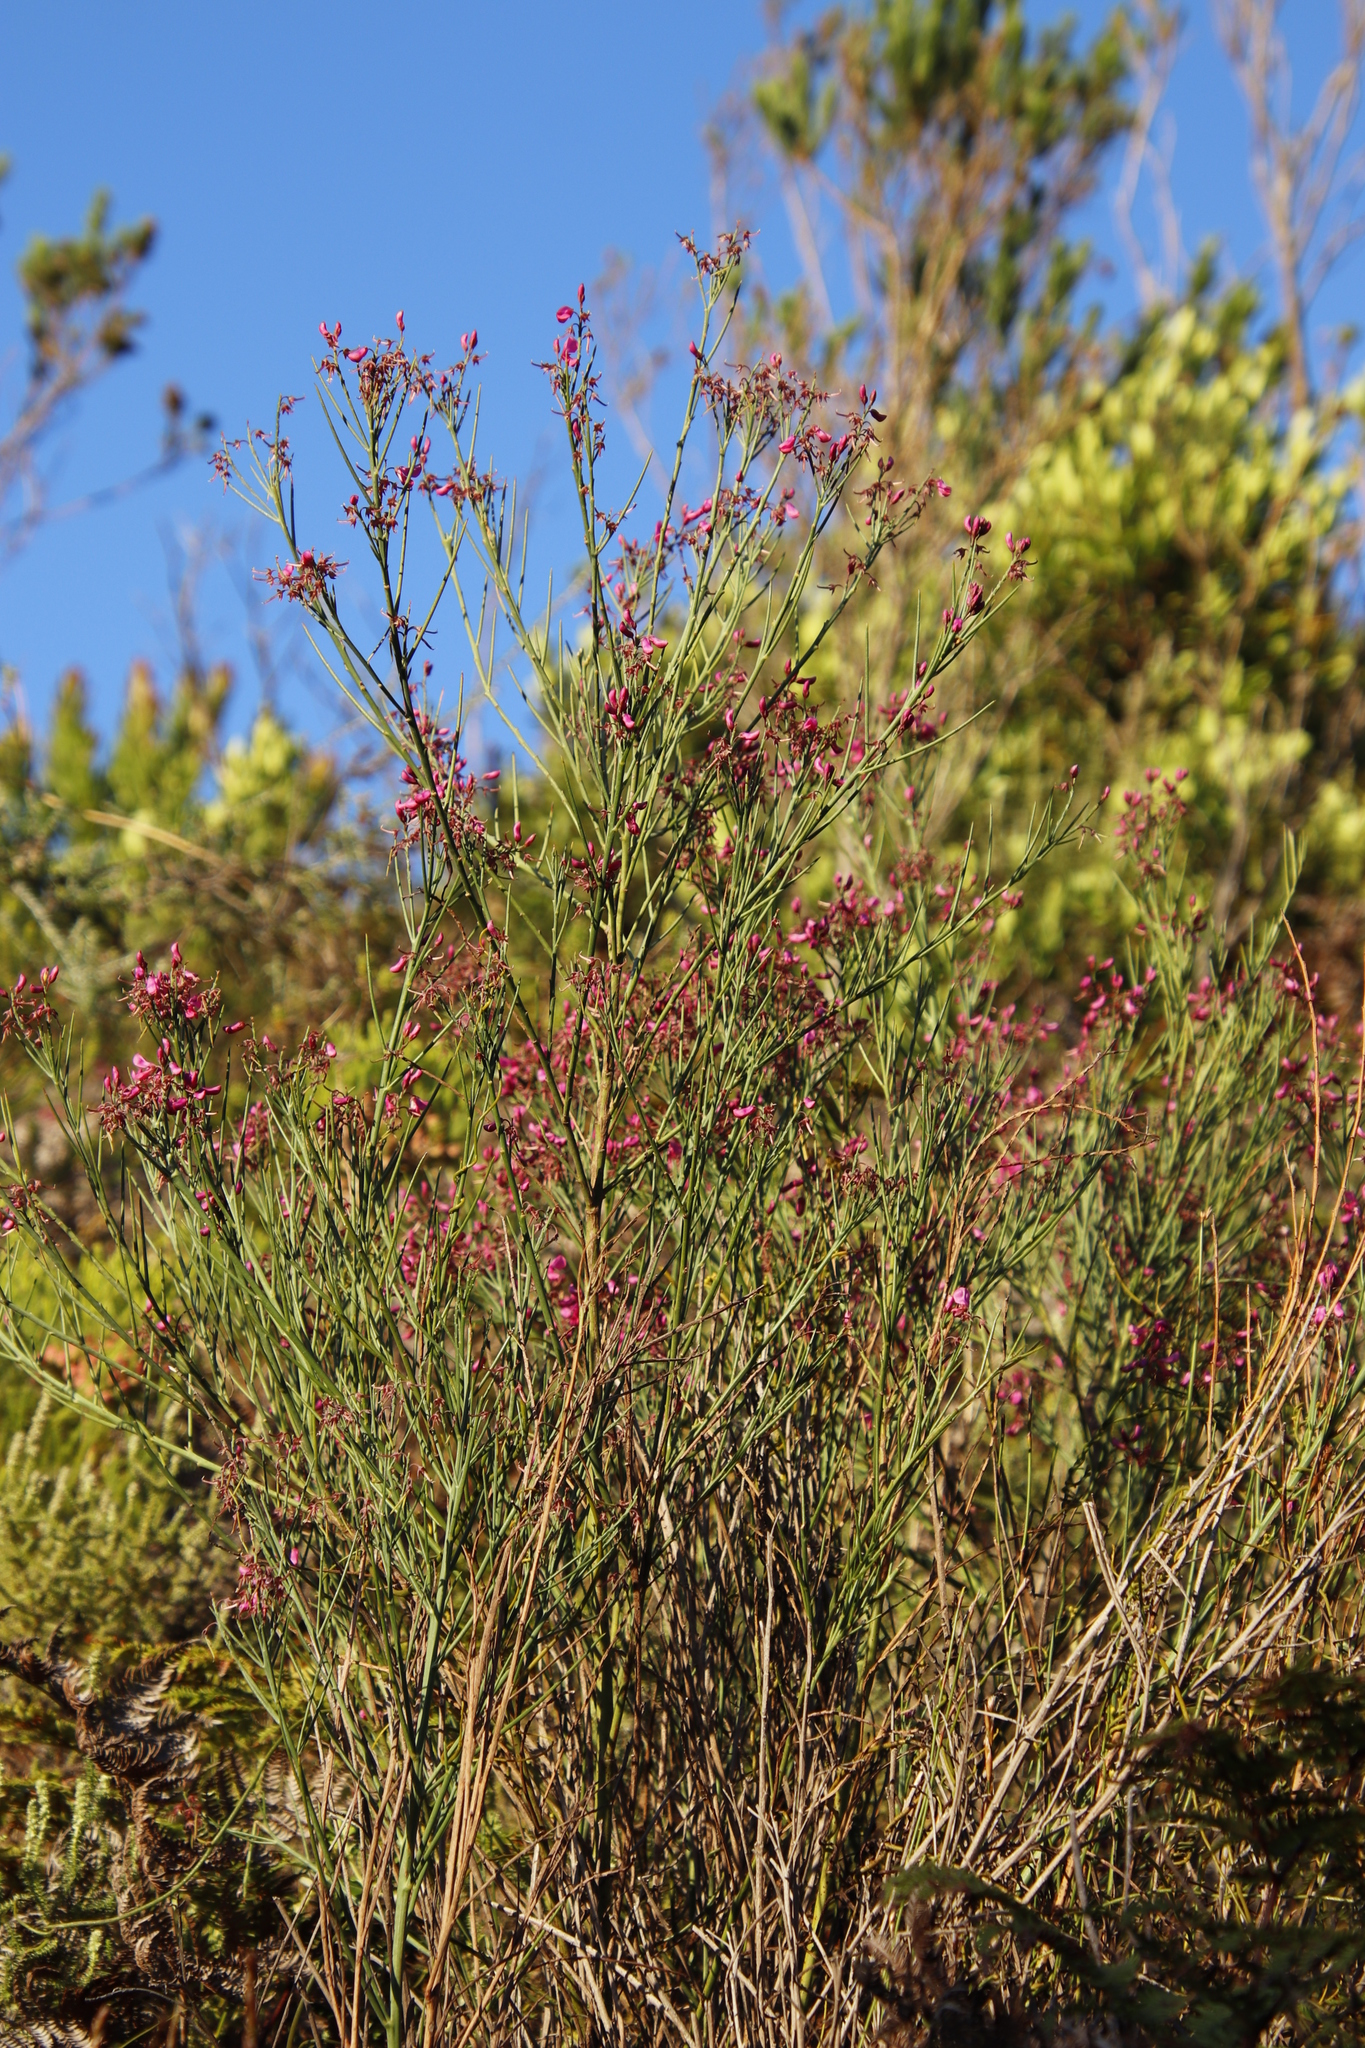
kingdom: Plantae
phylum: Tracheophyta
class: Magnoliopsida
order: Fabales
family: Fabaceae
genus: Indigofera
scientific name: Indigofera filifolia
